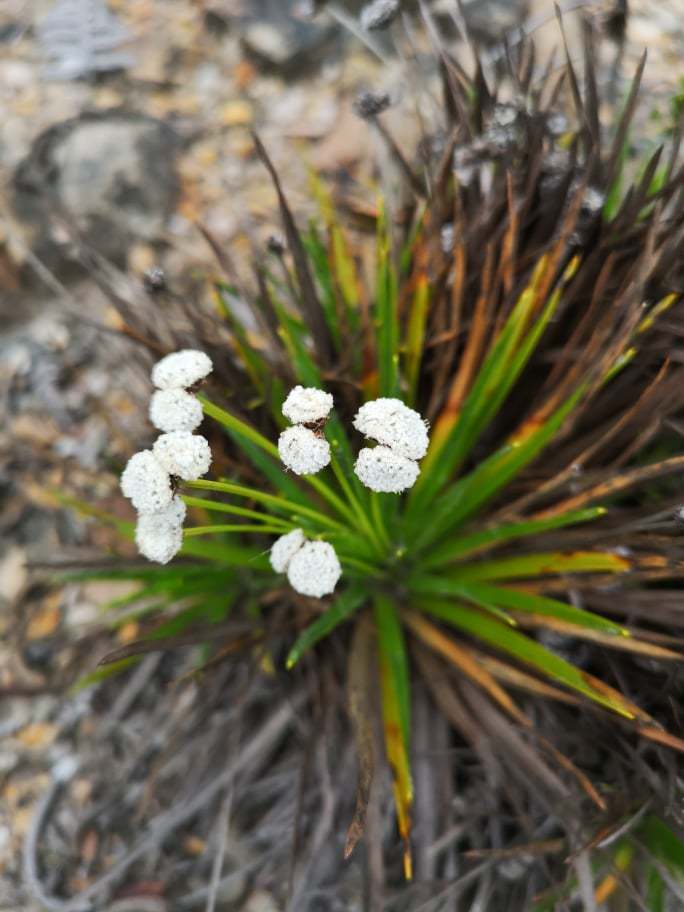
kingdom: Plantae
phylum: Tracheophyta
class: Liliopsida
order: Poales
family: Eriocaulaceae
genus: Paepalanthus
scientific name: Paepalanthus alpinus
